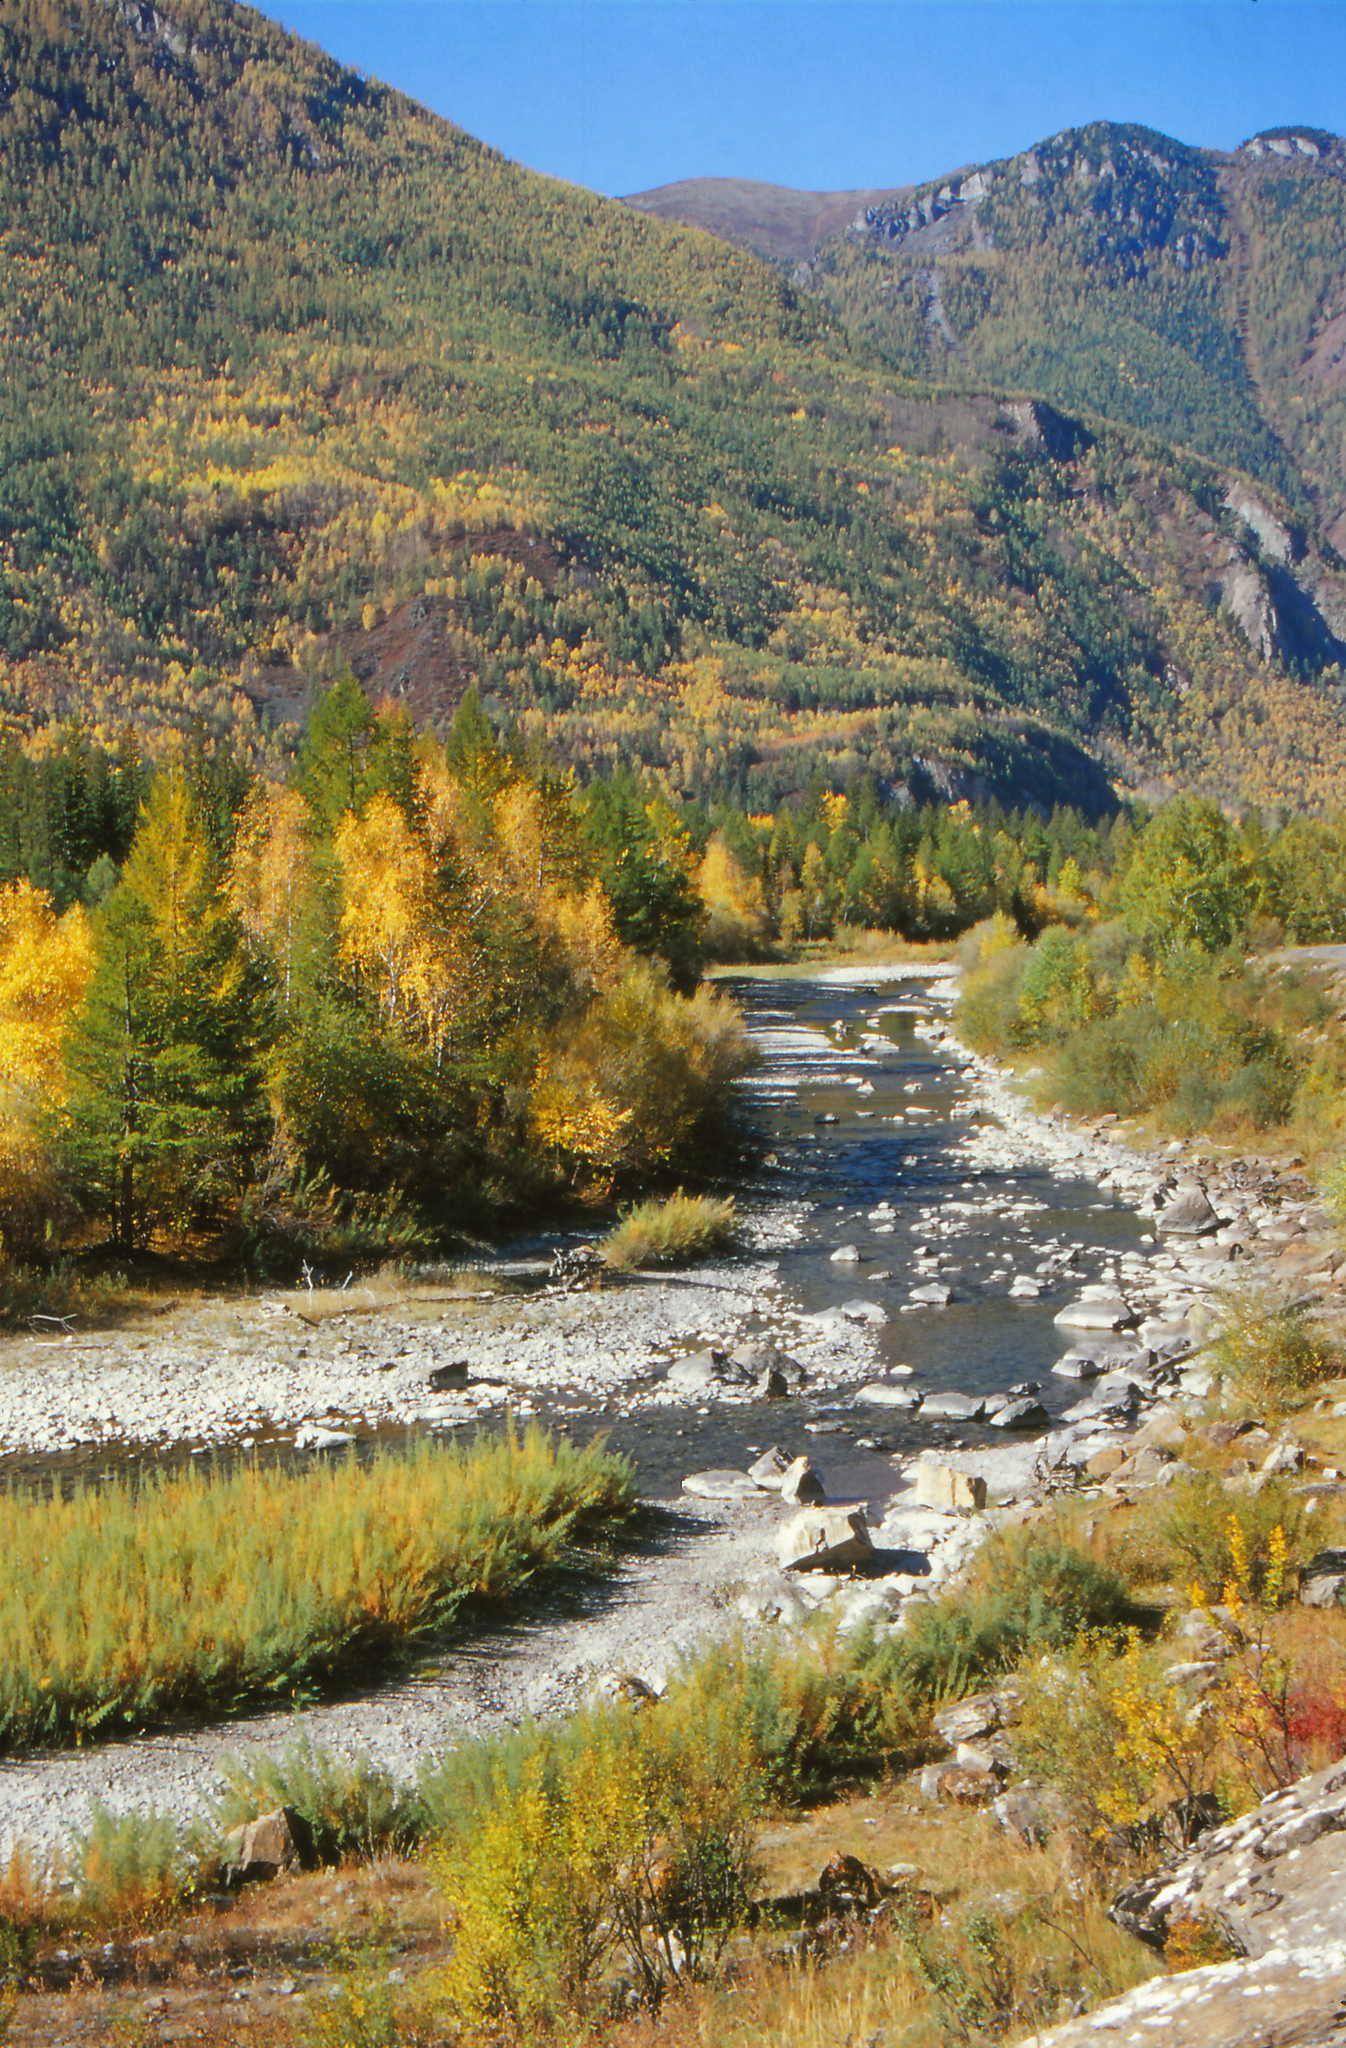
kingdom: Plantae
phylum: Tracheophyta
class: Pinopsida
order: Pinales
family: Pinaceae
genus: Picea
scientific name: Picea obovata
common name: Siberian spruce
